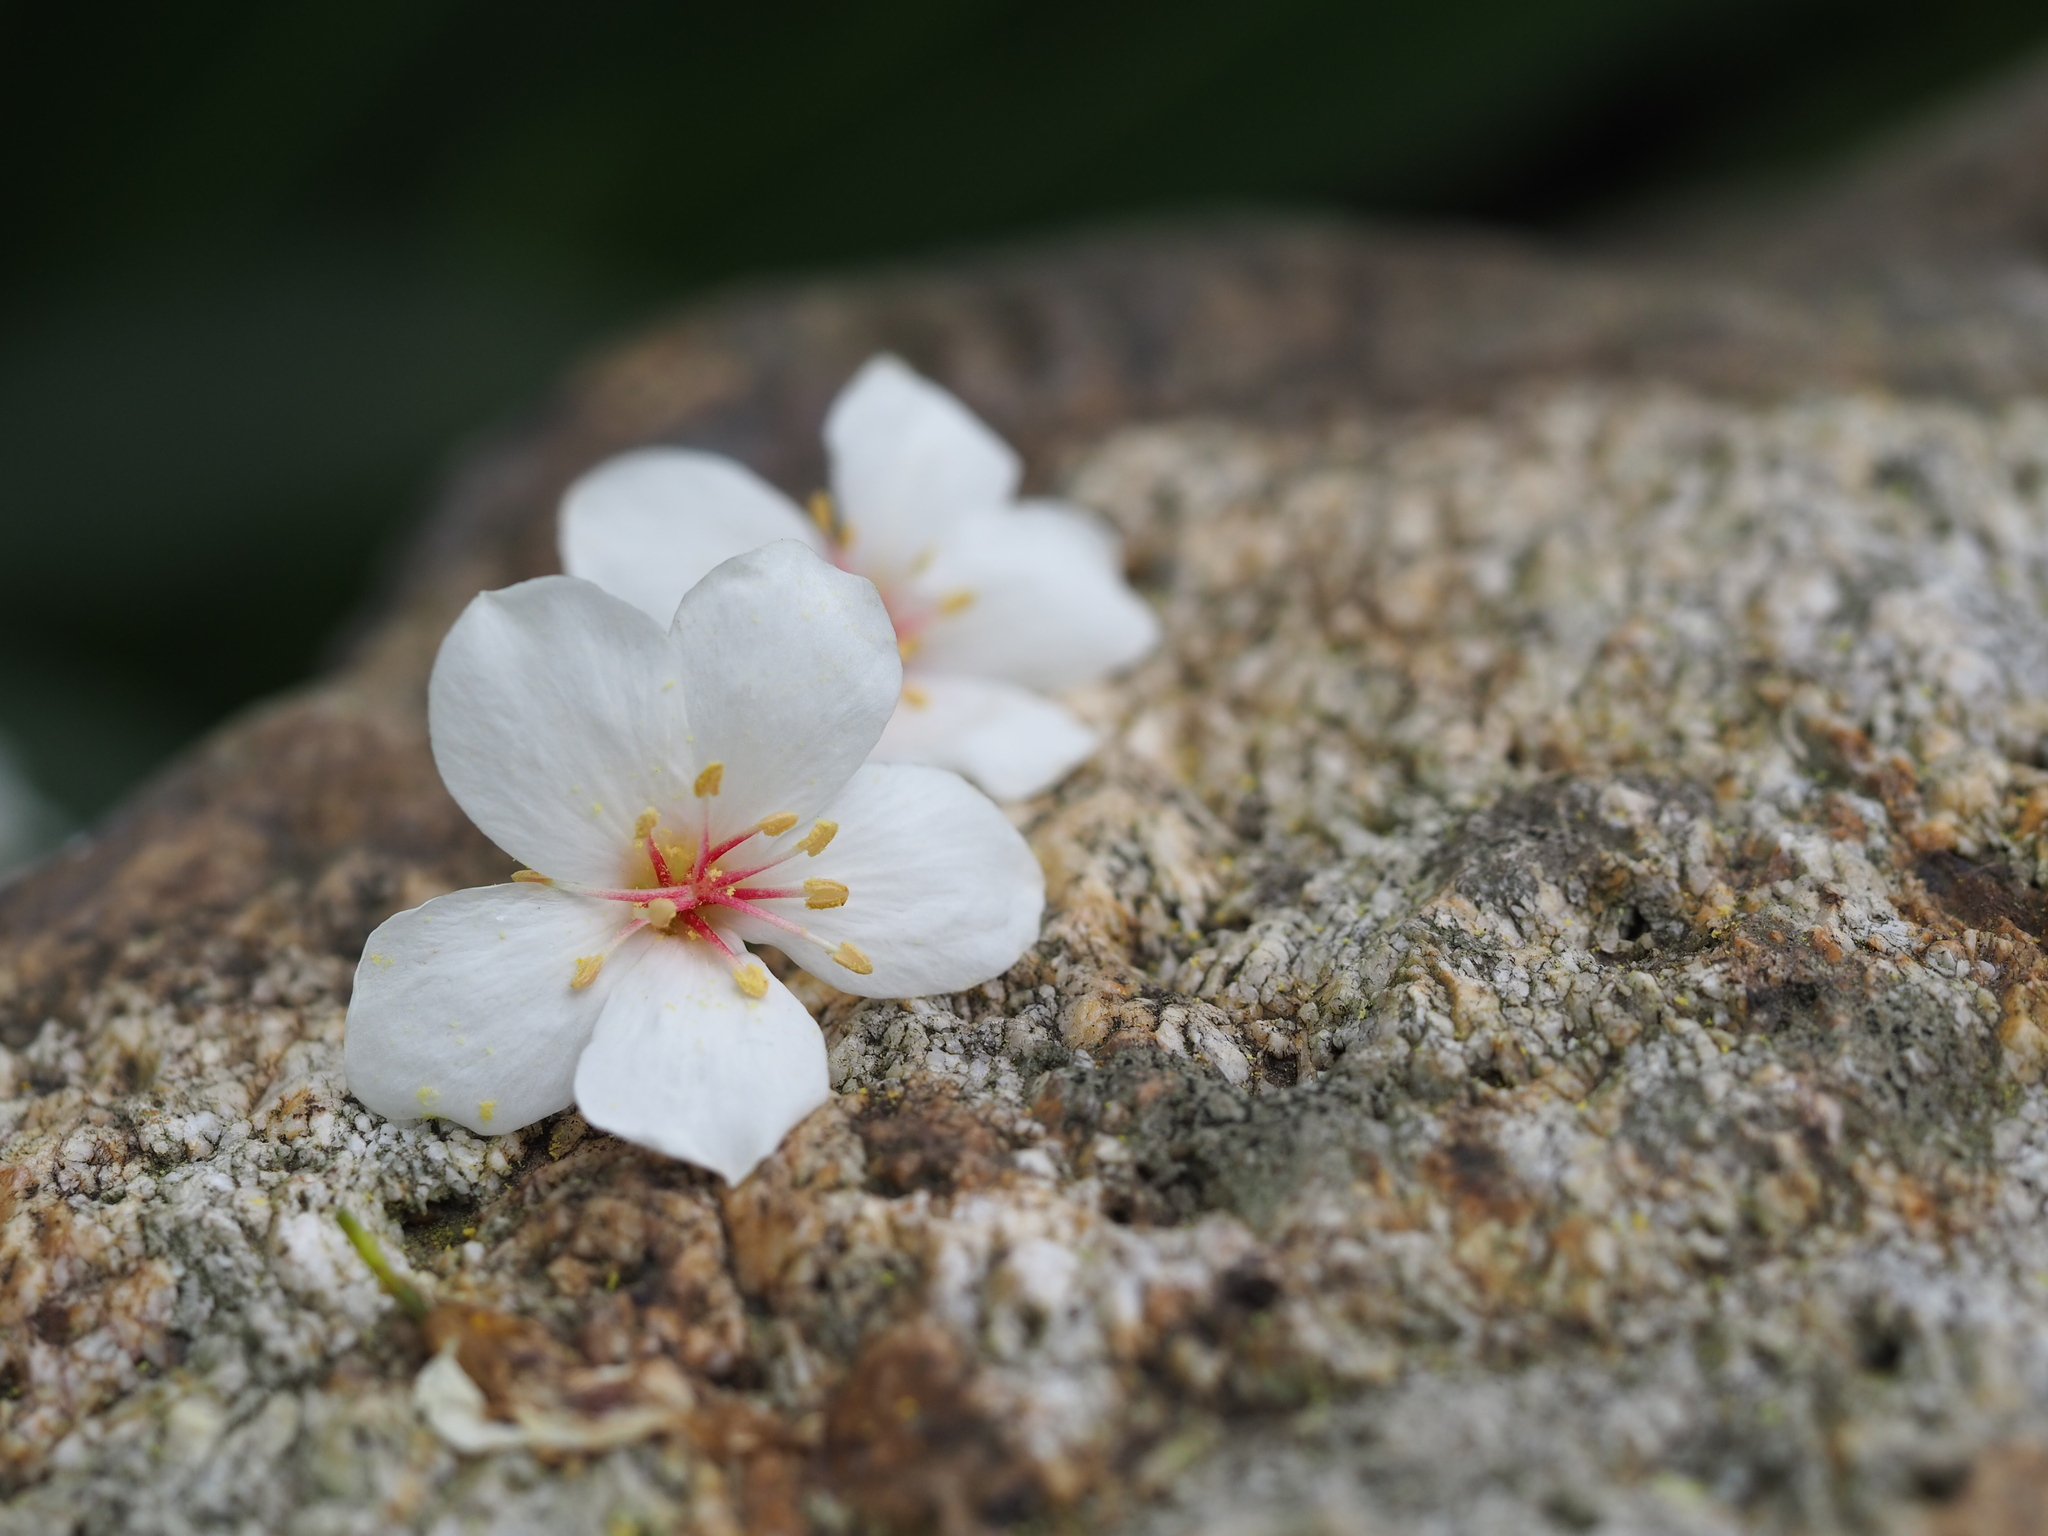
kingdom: Plantae
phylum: Tracheophyta
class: Magnoliopsida
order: Malpighiales
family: Euphorbiaceae
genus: Vernicia
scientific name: Vernicia montana
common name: Mu oil tree
